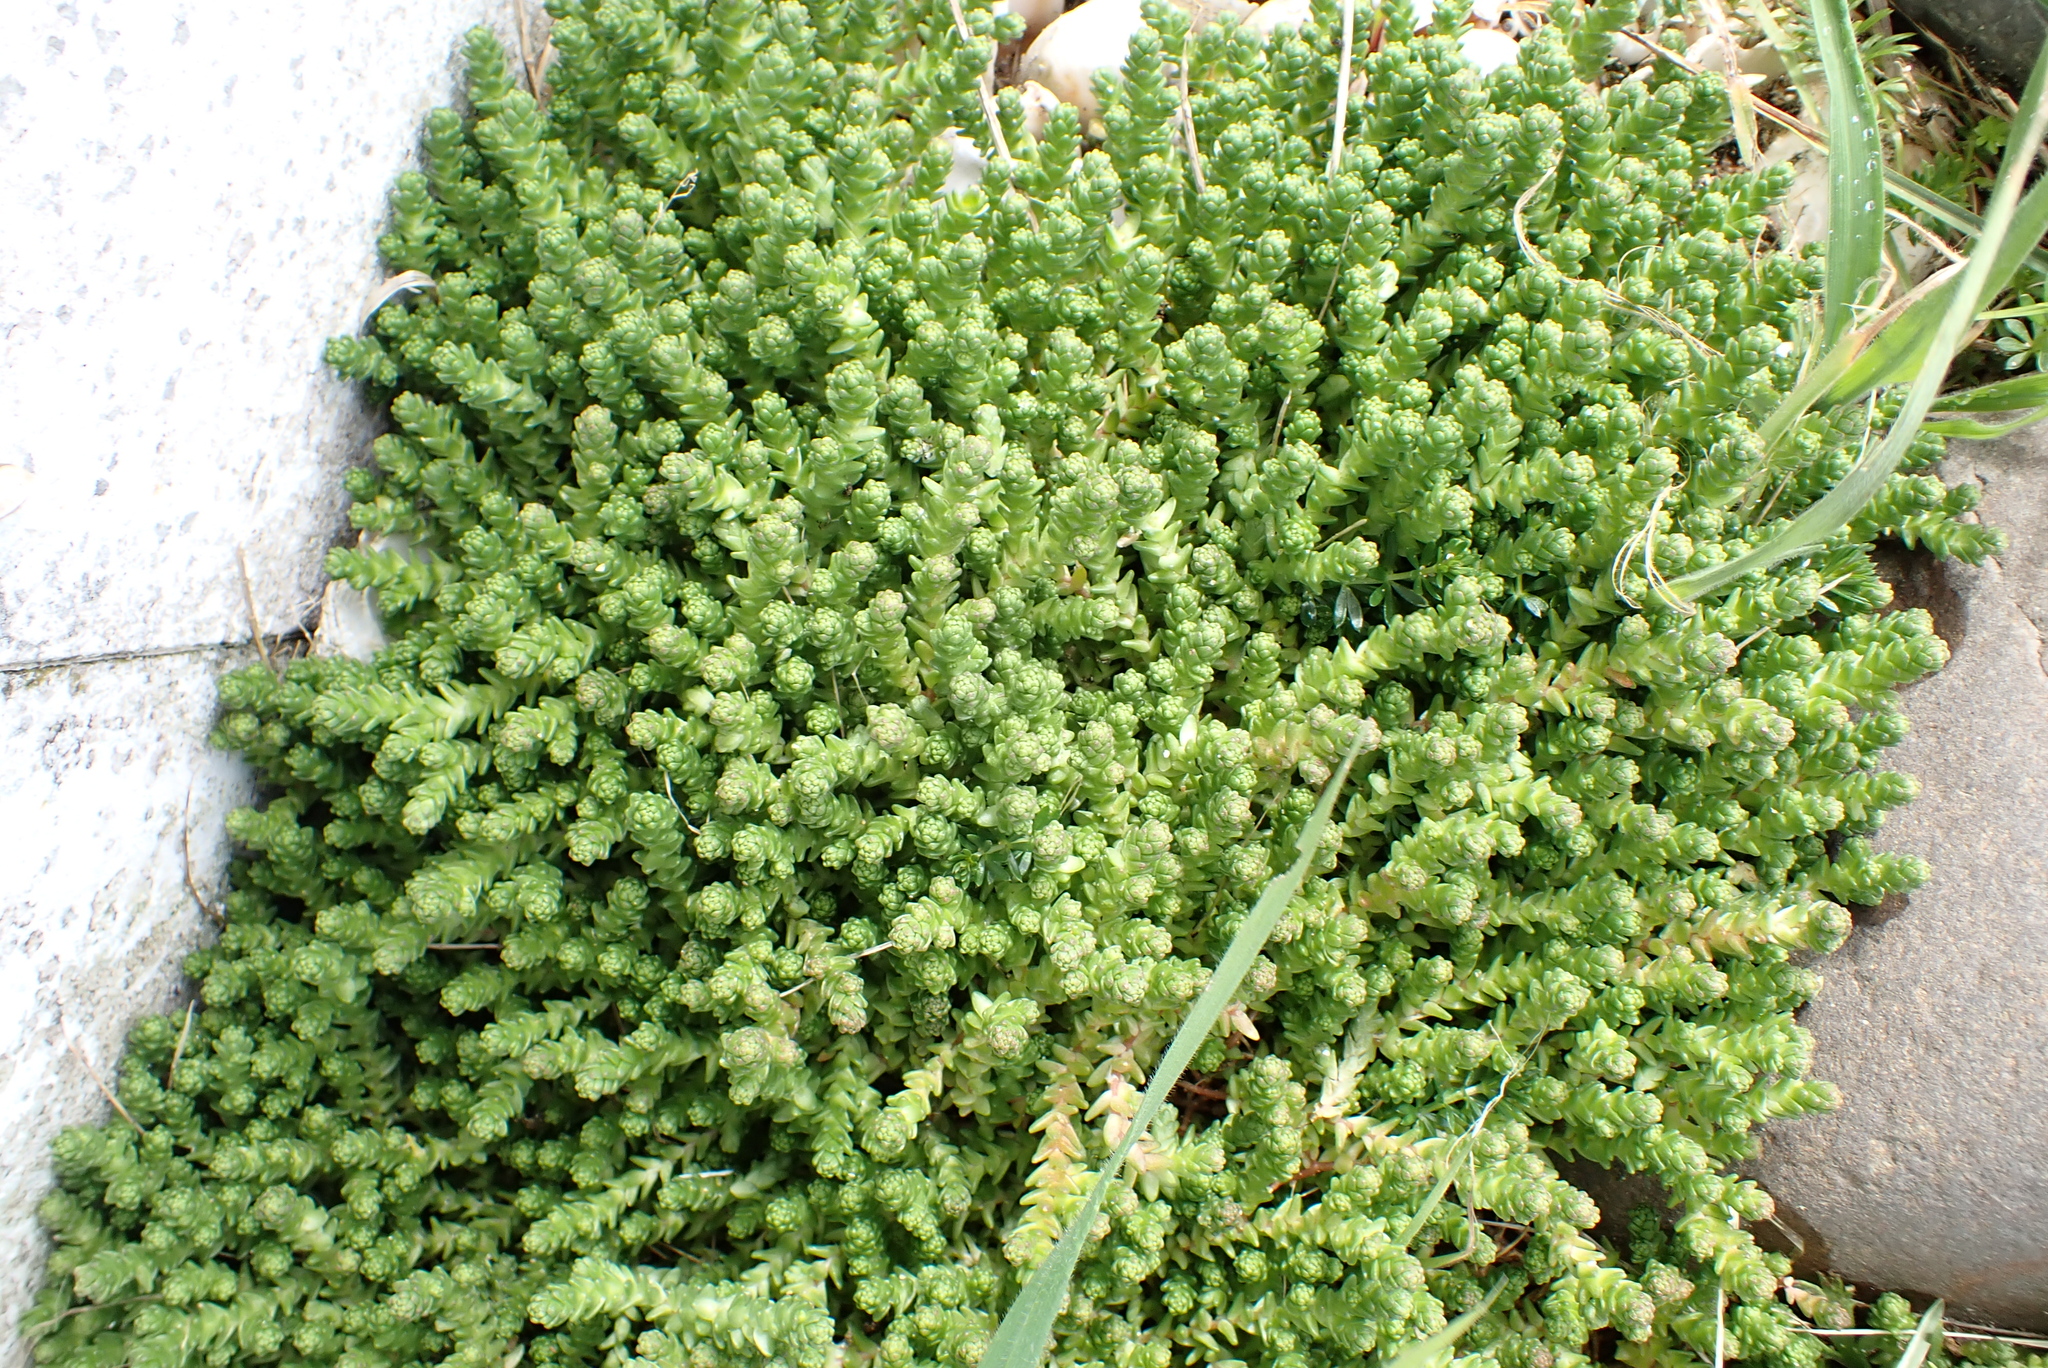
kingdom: Plantae
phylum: Tracheophyta
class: Magnoliopsida
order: Saxifragales
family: Crassulaceae
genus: Sedum
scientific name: Sedum acre
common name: Biting stonecrop
